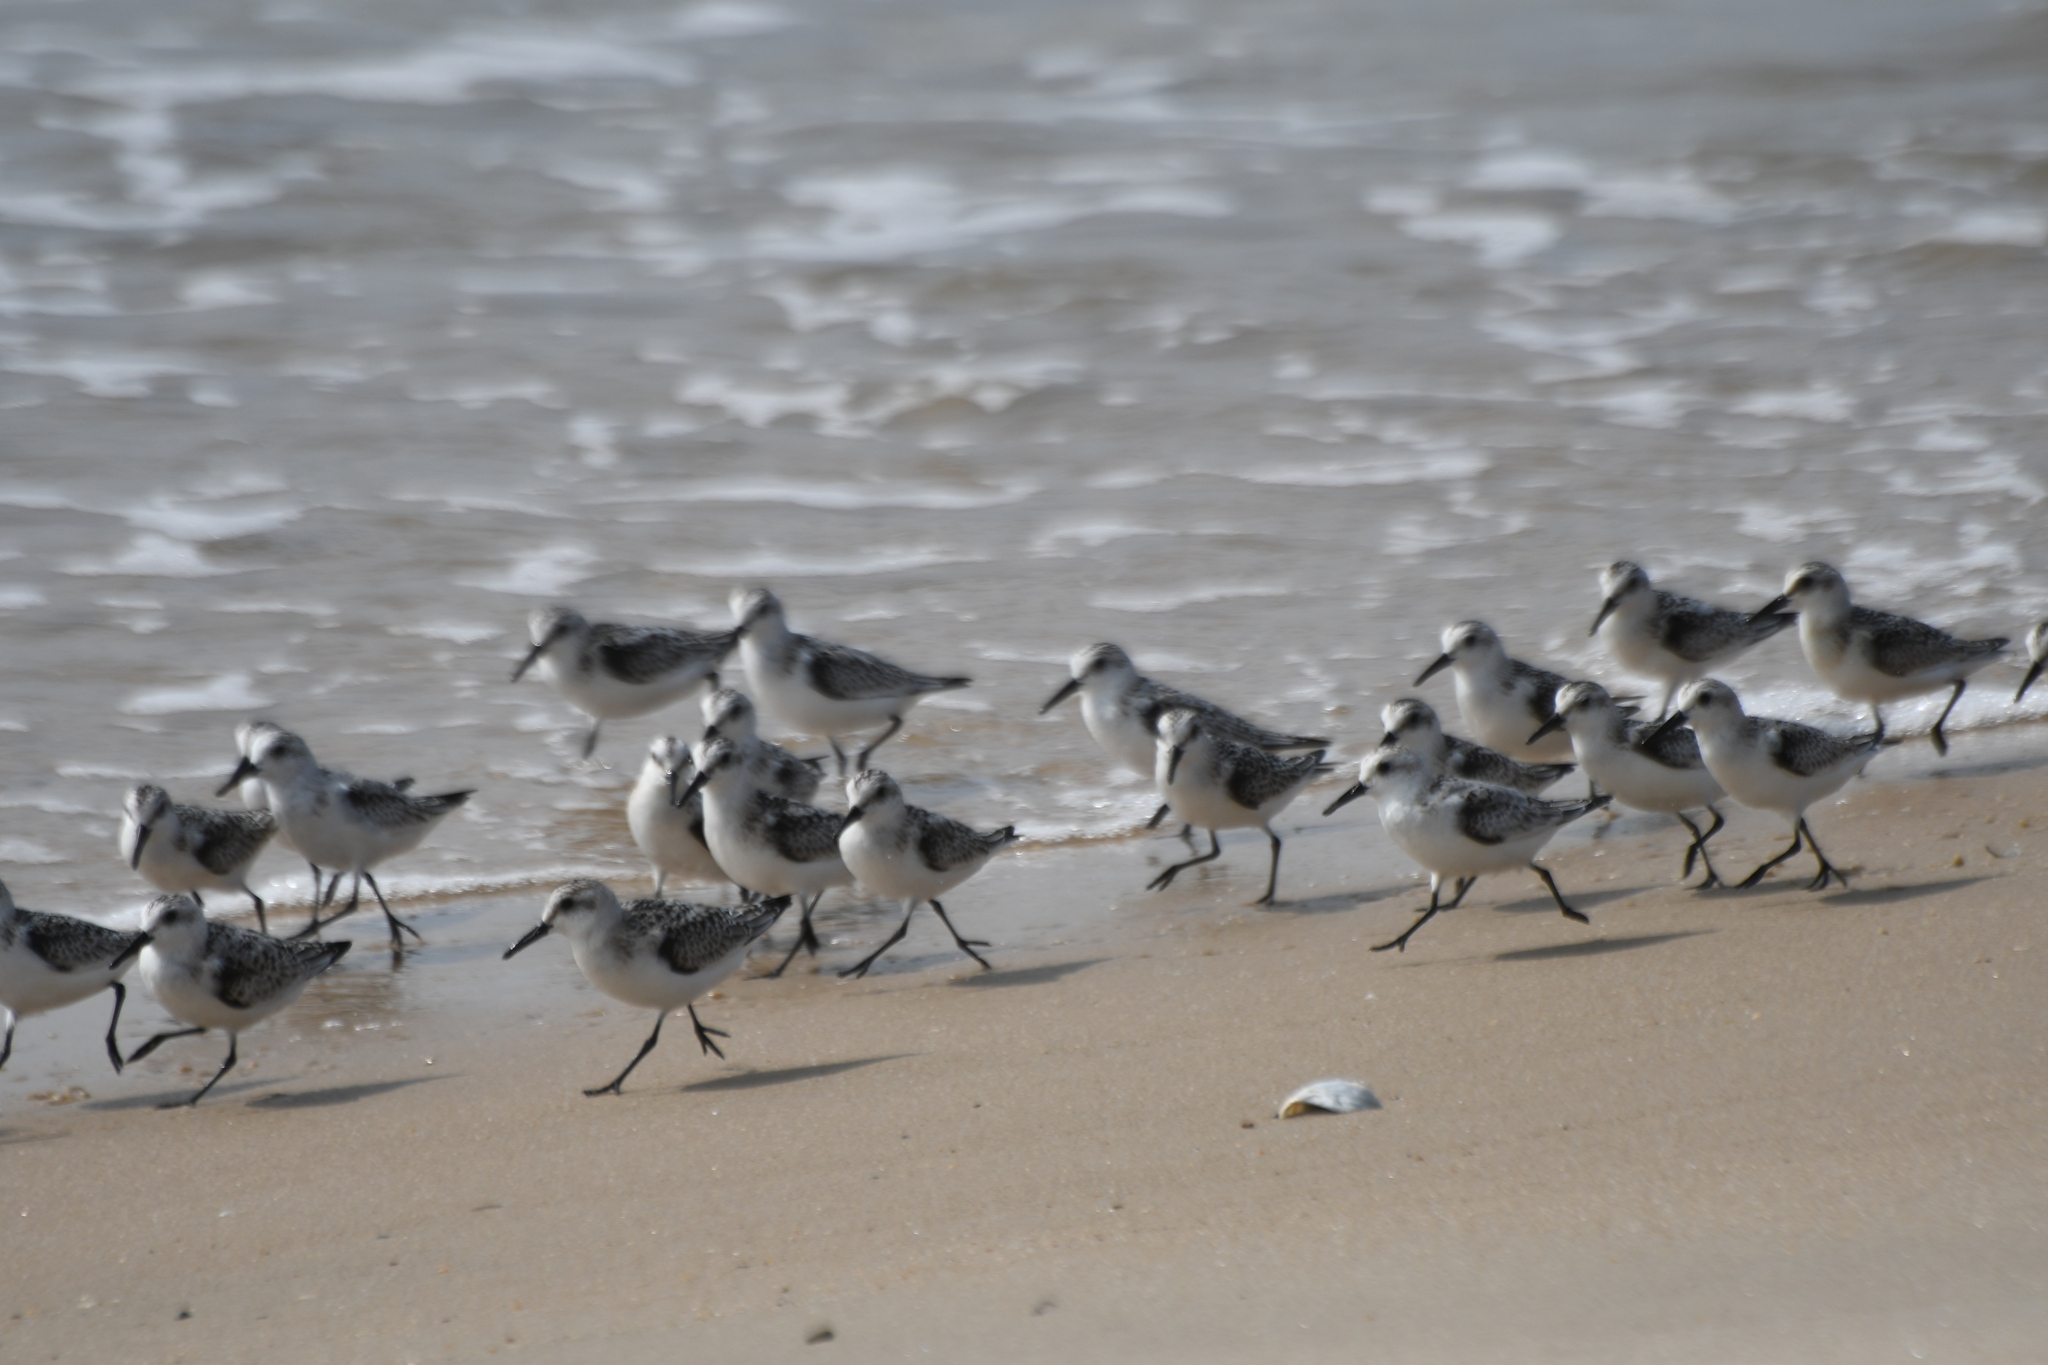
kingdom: Animalia
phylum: Chordata
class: Aves
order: Charadriiformes
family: Scolopacidae
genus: Calidris
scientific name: Calidris alba
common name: Sanderling
